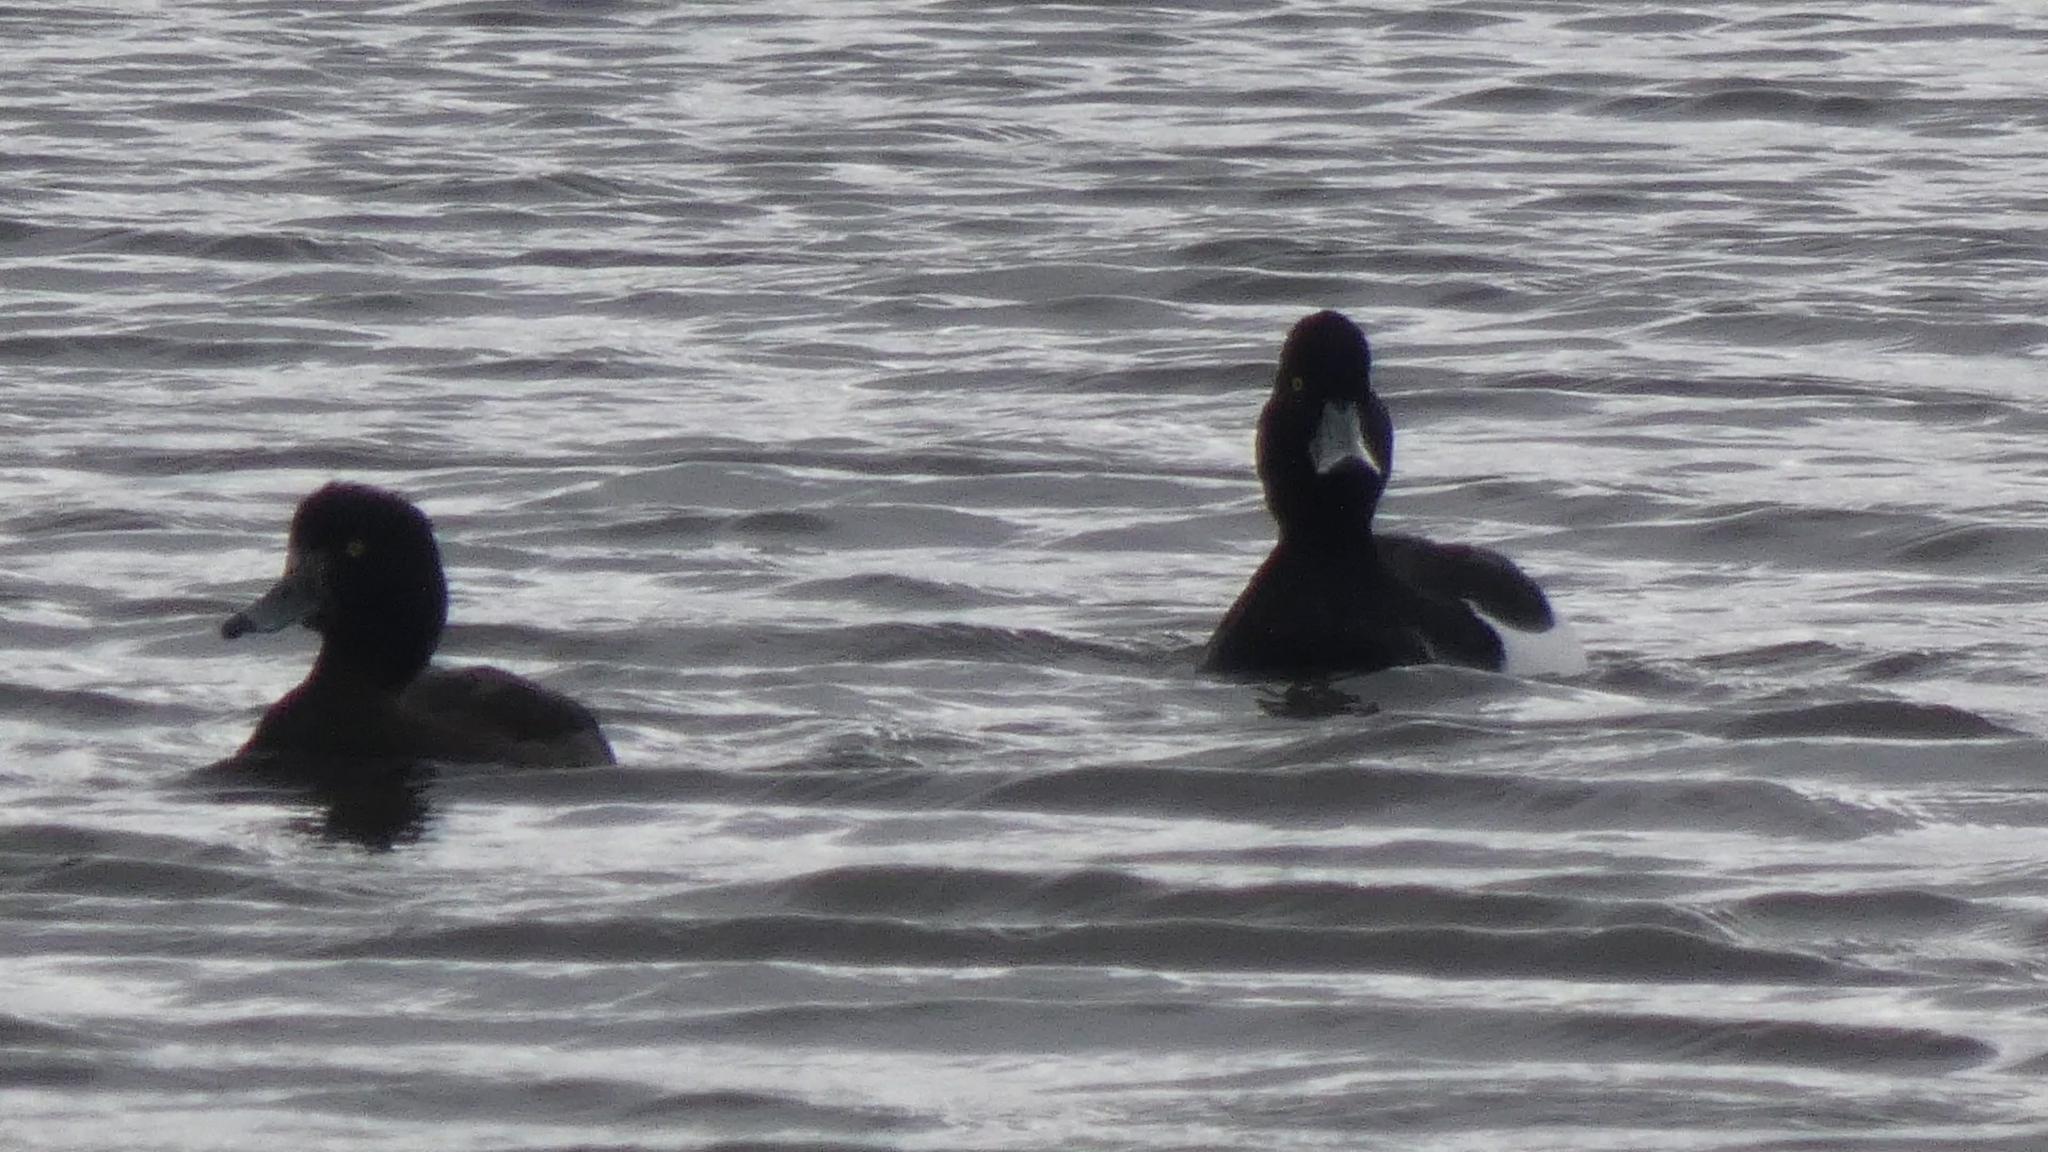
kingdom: Animalia
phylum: Chordata
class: Aves
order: Anseriformes
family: Anatidae
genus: Aythya
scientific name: Aythya fuligula
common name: Tufted duck
